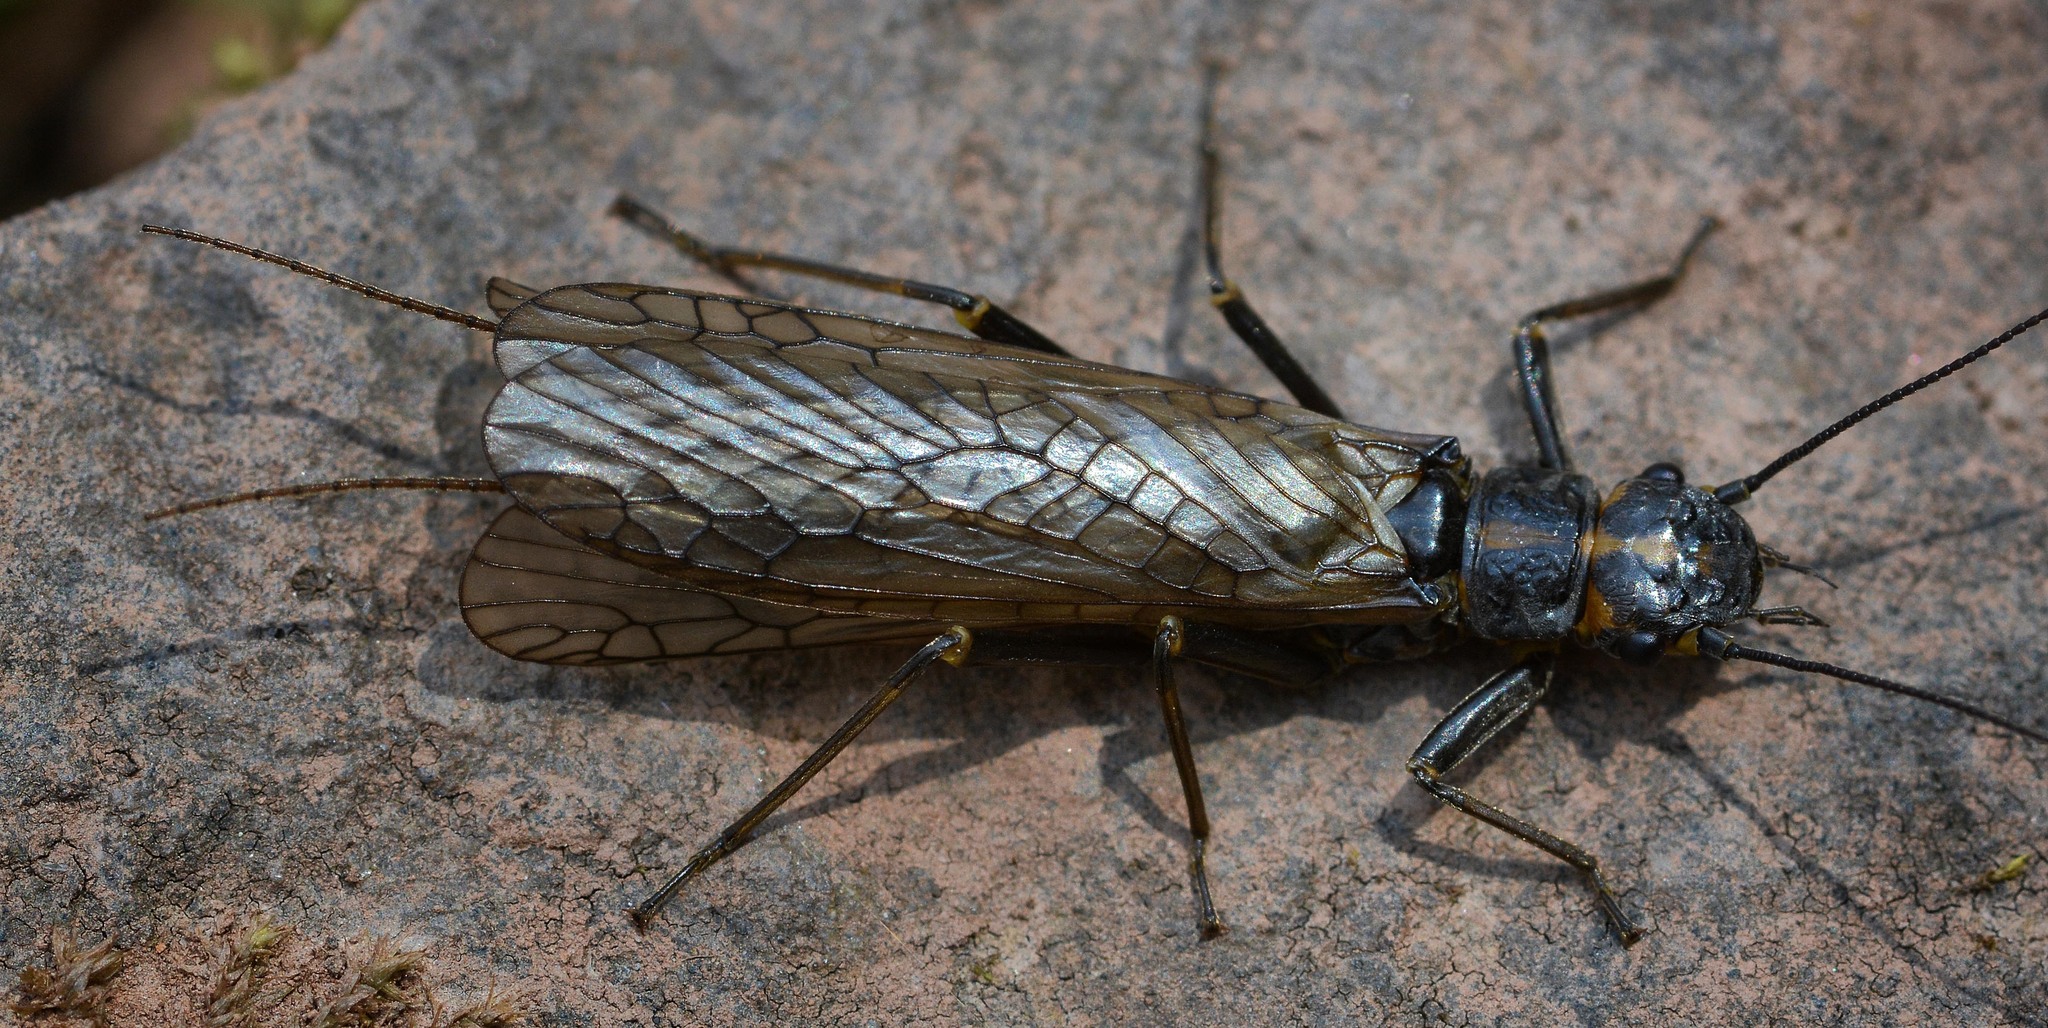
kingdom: Animalia
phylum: Arthropoda
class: Insecta
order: Plecoptera
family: Perlodidae
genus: Perlodes
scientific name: Perlodes mortoni
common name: Orange-striped stonefly
